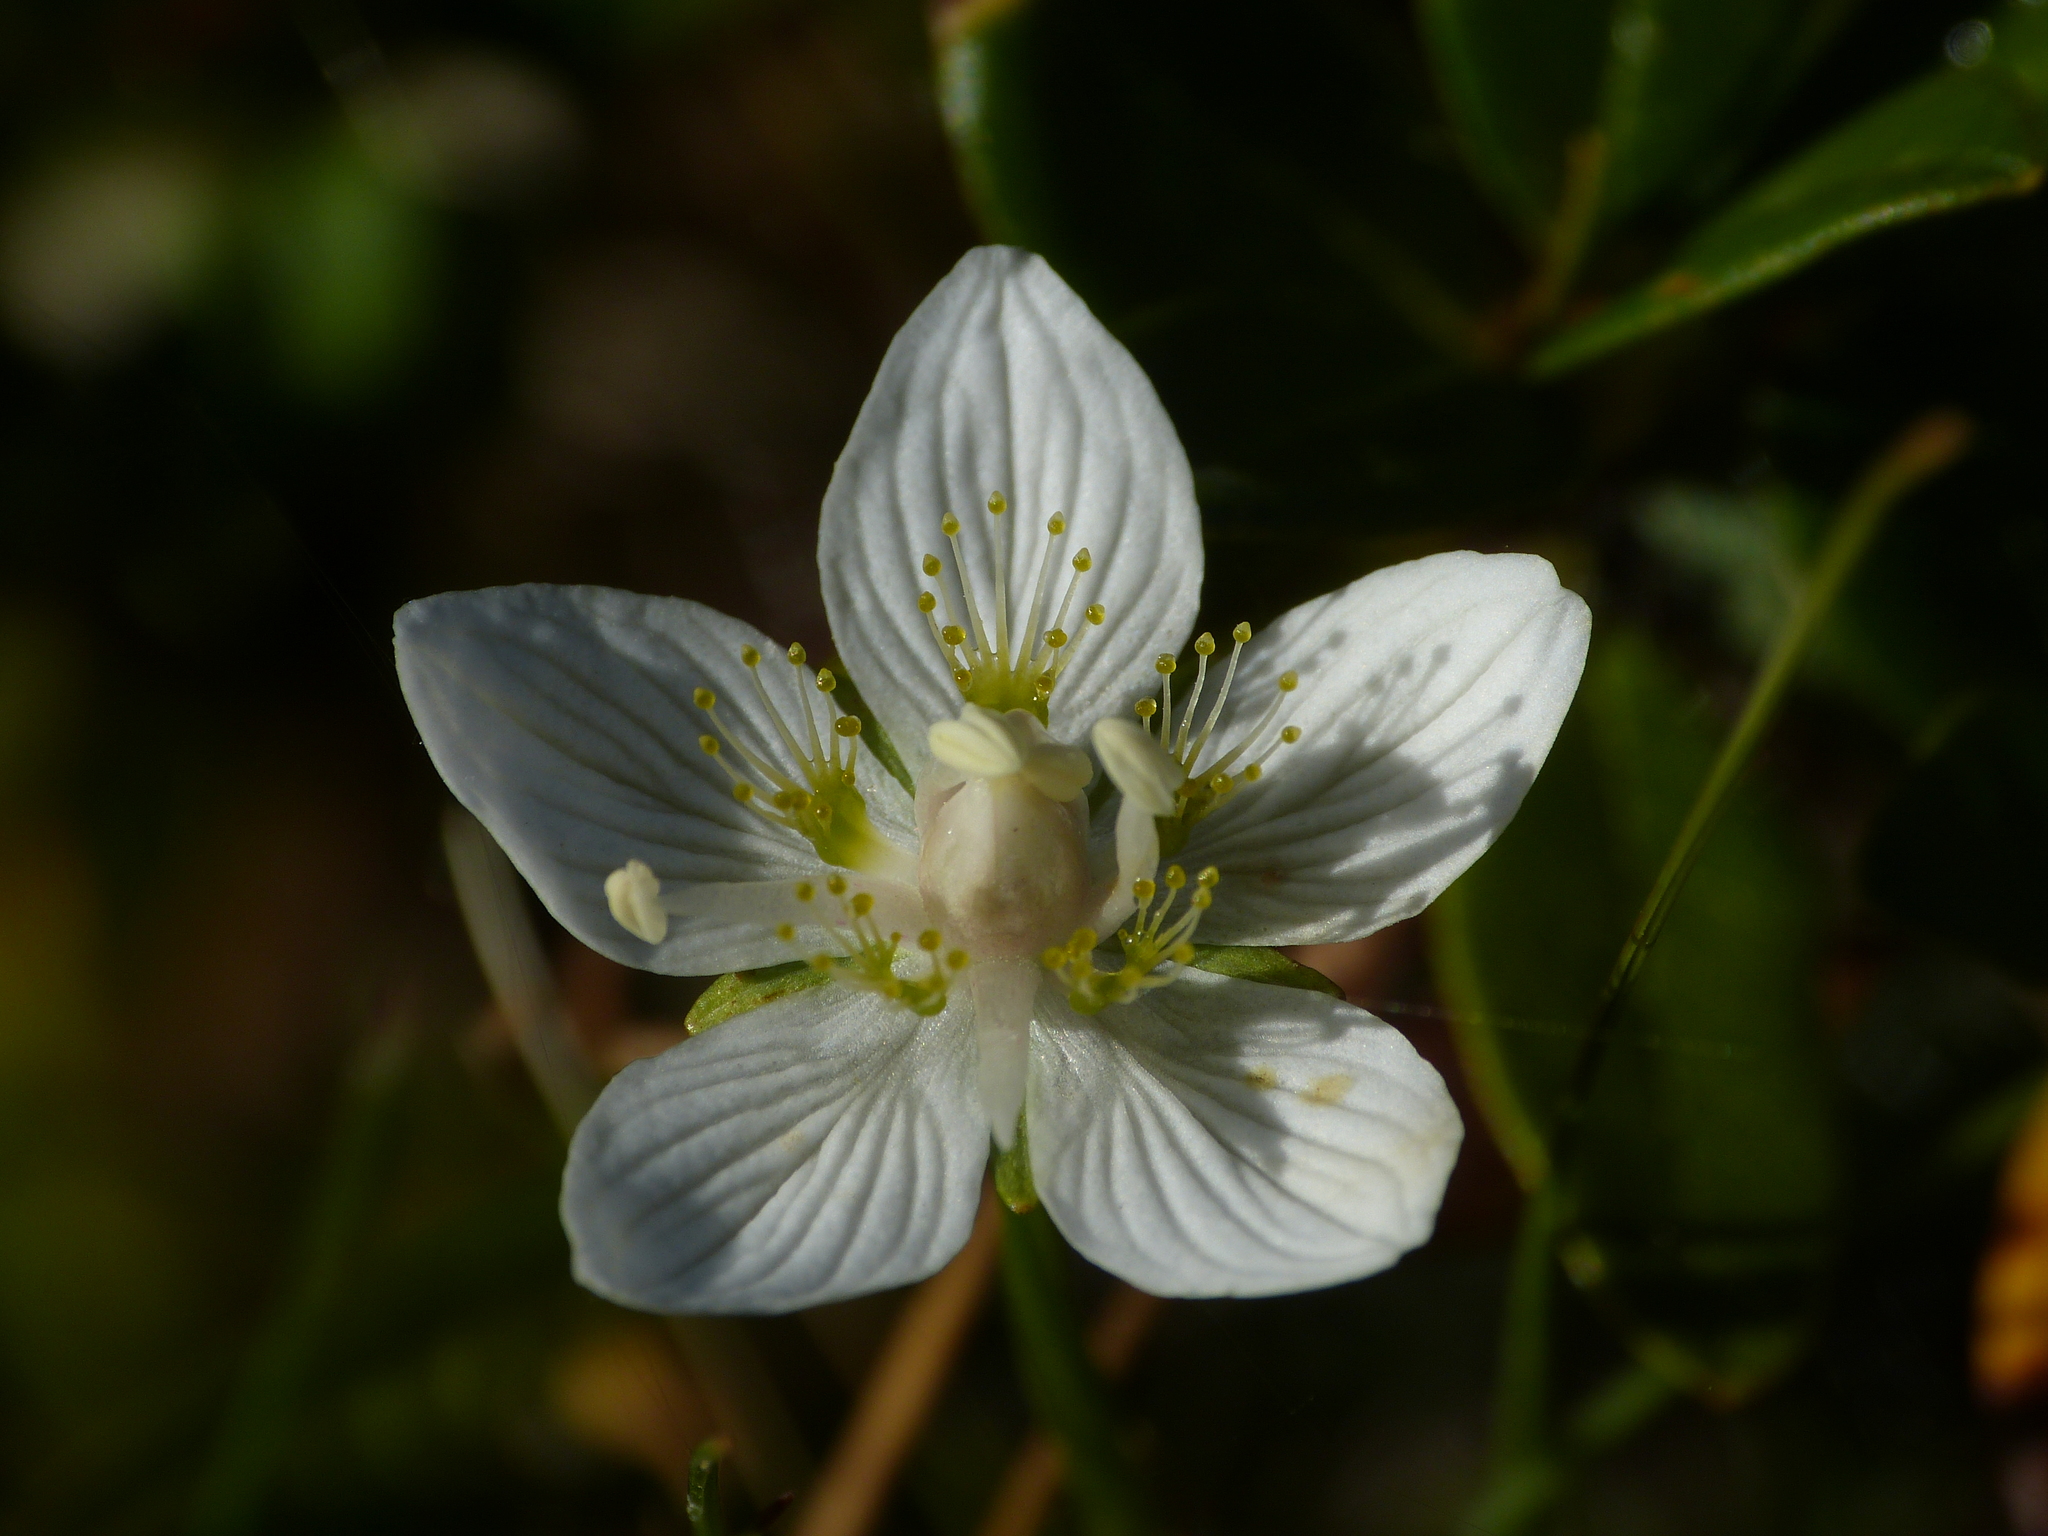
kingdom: Plantae
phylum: Tracheophyta
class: Magnoliopsida
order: Celastrales
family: Parnassiaceae
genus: Parnassia
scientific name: Parnassia palustris
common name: Grass-of-parnassus
